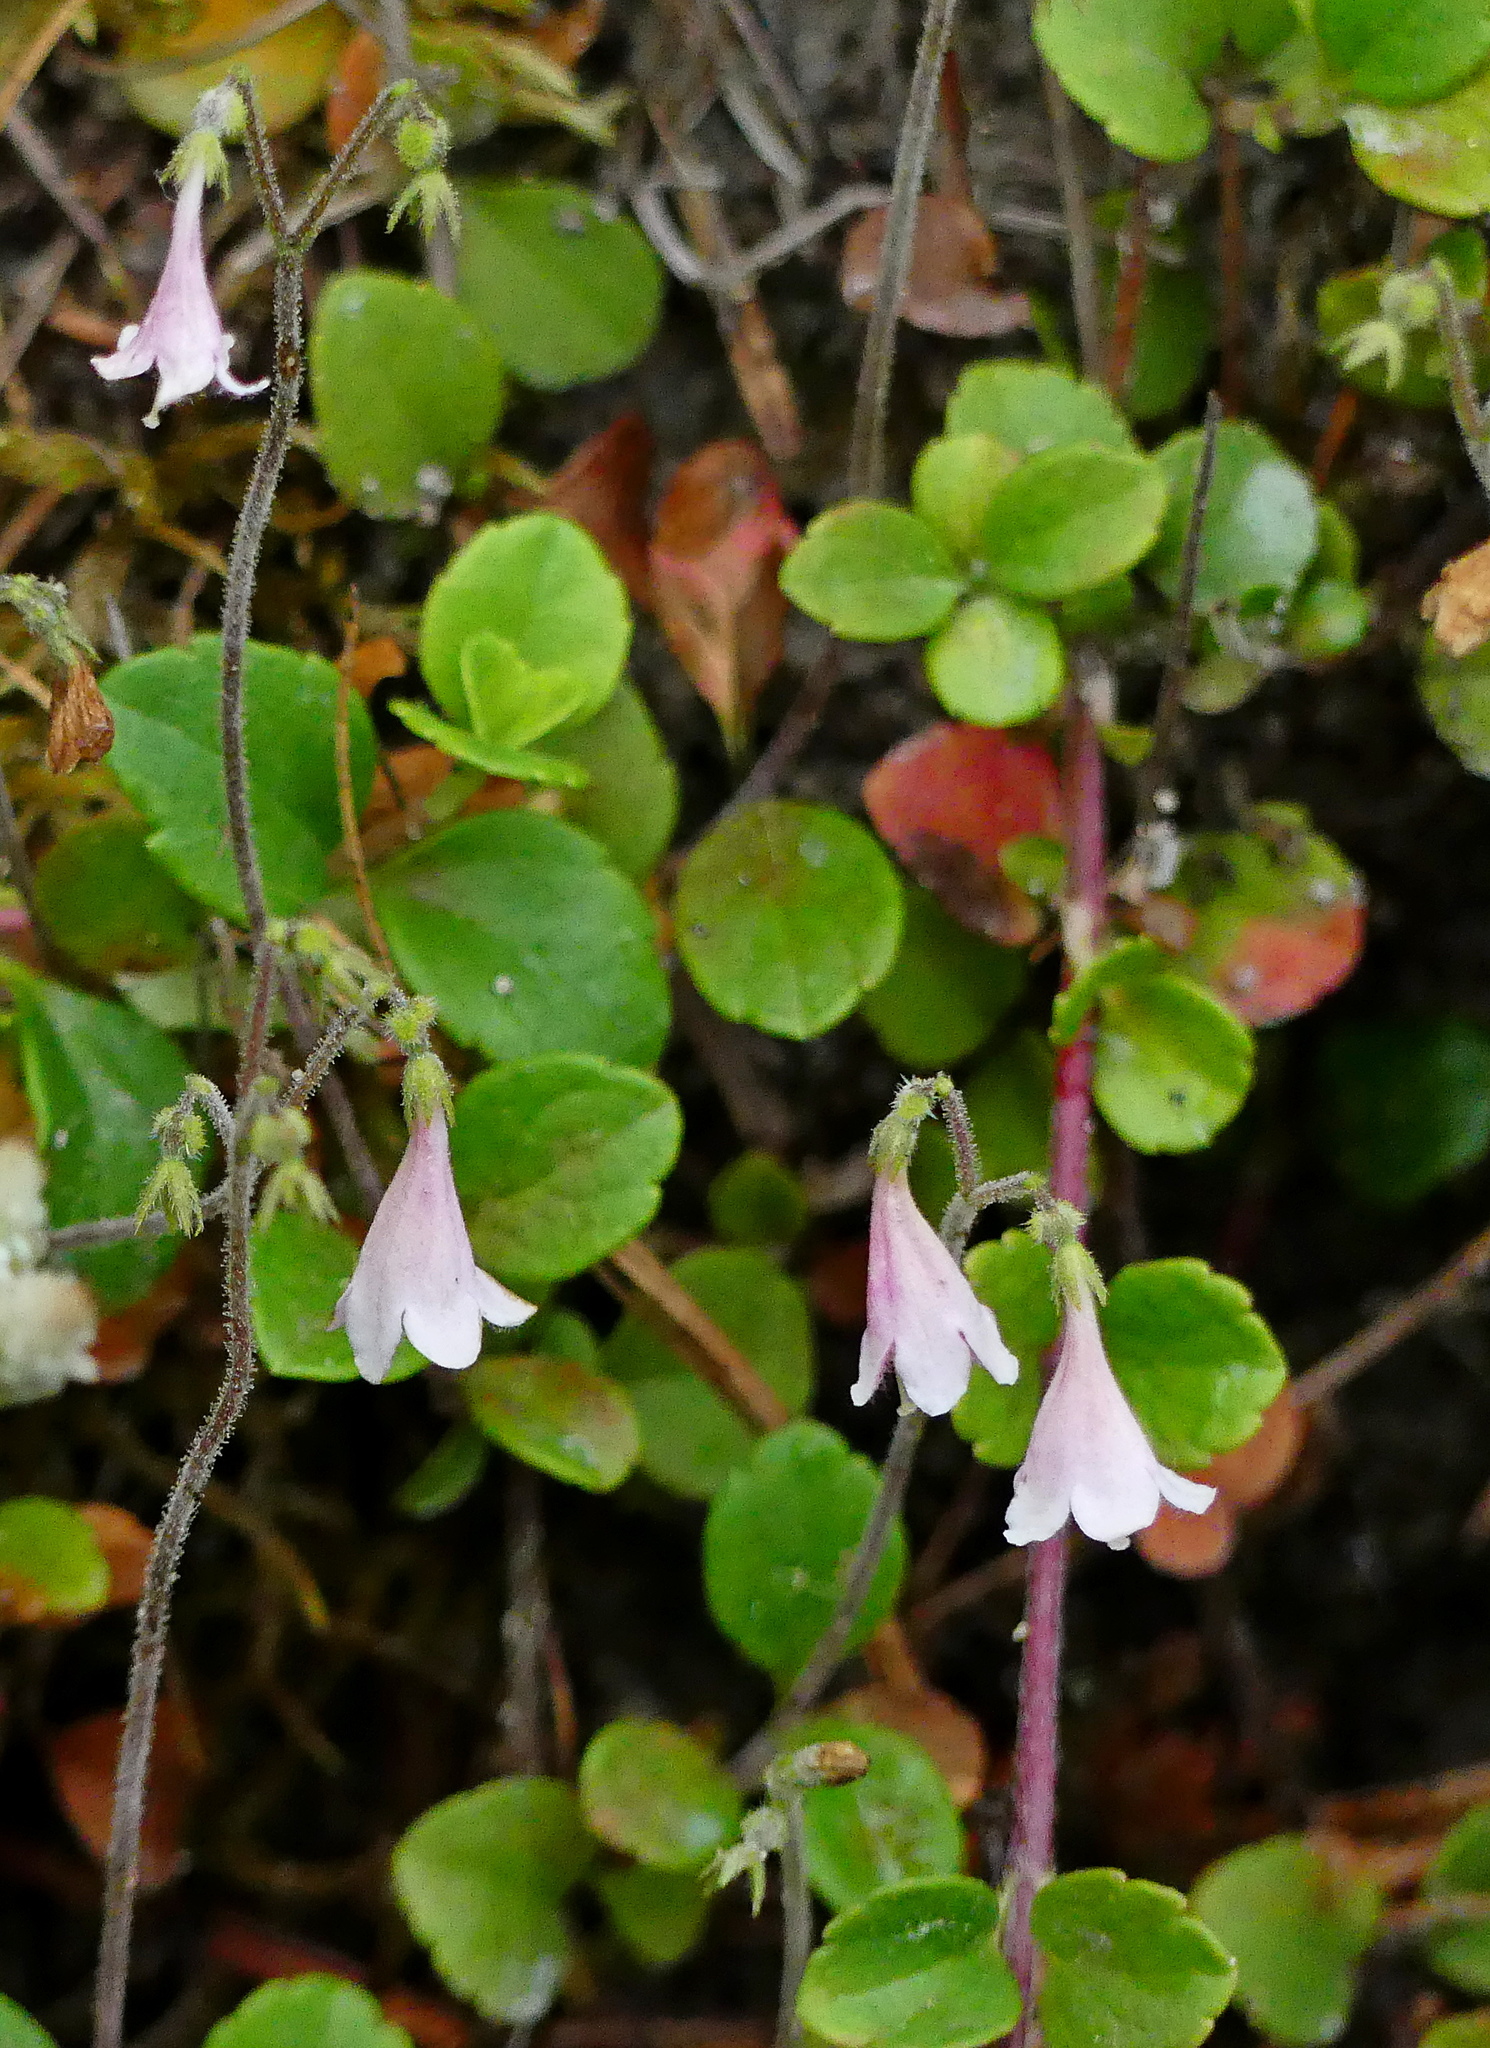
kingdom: Plantae
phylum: Tracheophyta
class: Magnoliopsida
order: Dipsacales
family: Caprifoliaceae
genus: Linnaea
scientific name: Linnaea borealis
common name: Twinflower
